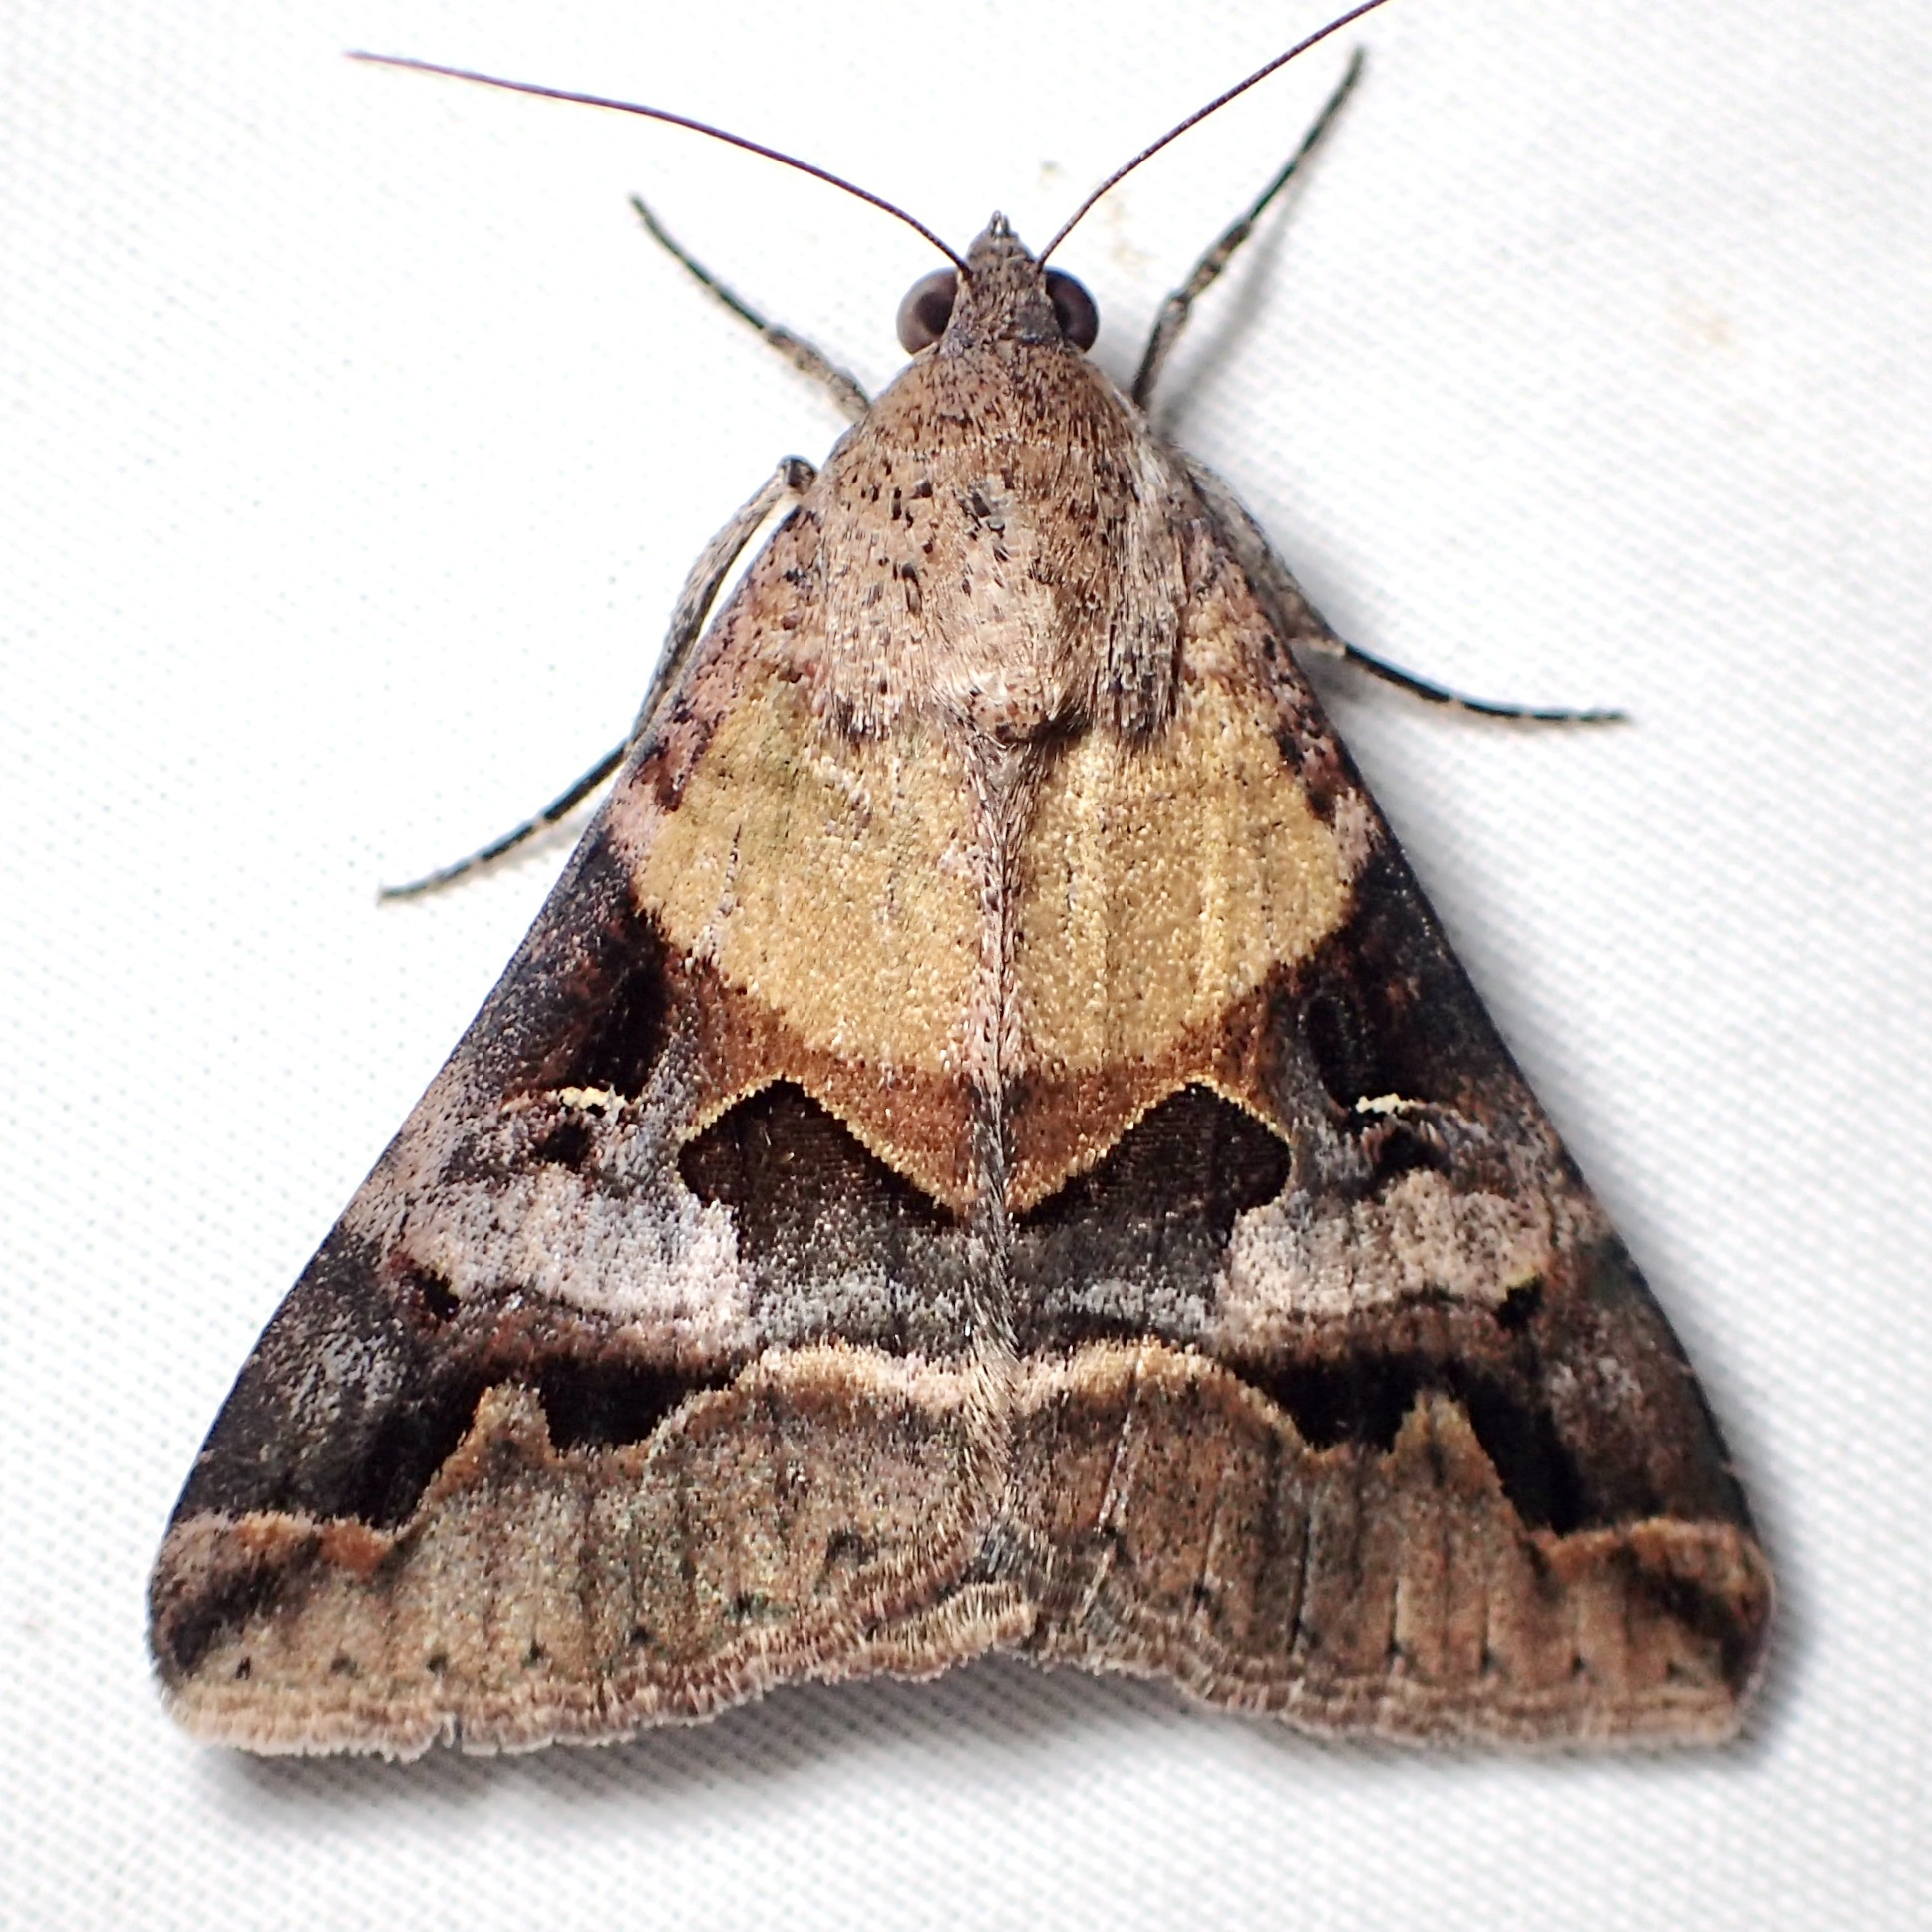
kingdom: Animalia
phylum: Arthropoda
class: Insecta
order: Lepidoptera
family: Erebidae
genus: Melipotis
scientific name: Melipotis perpendicularis
